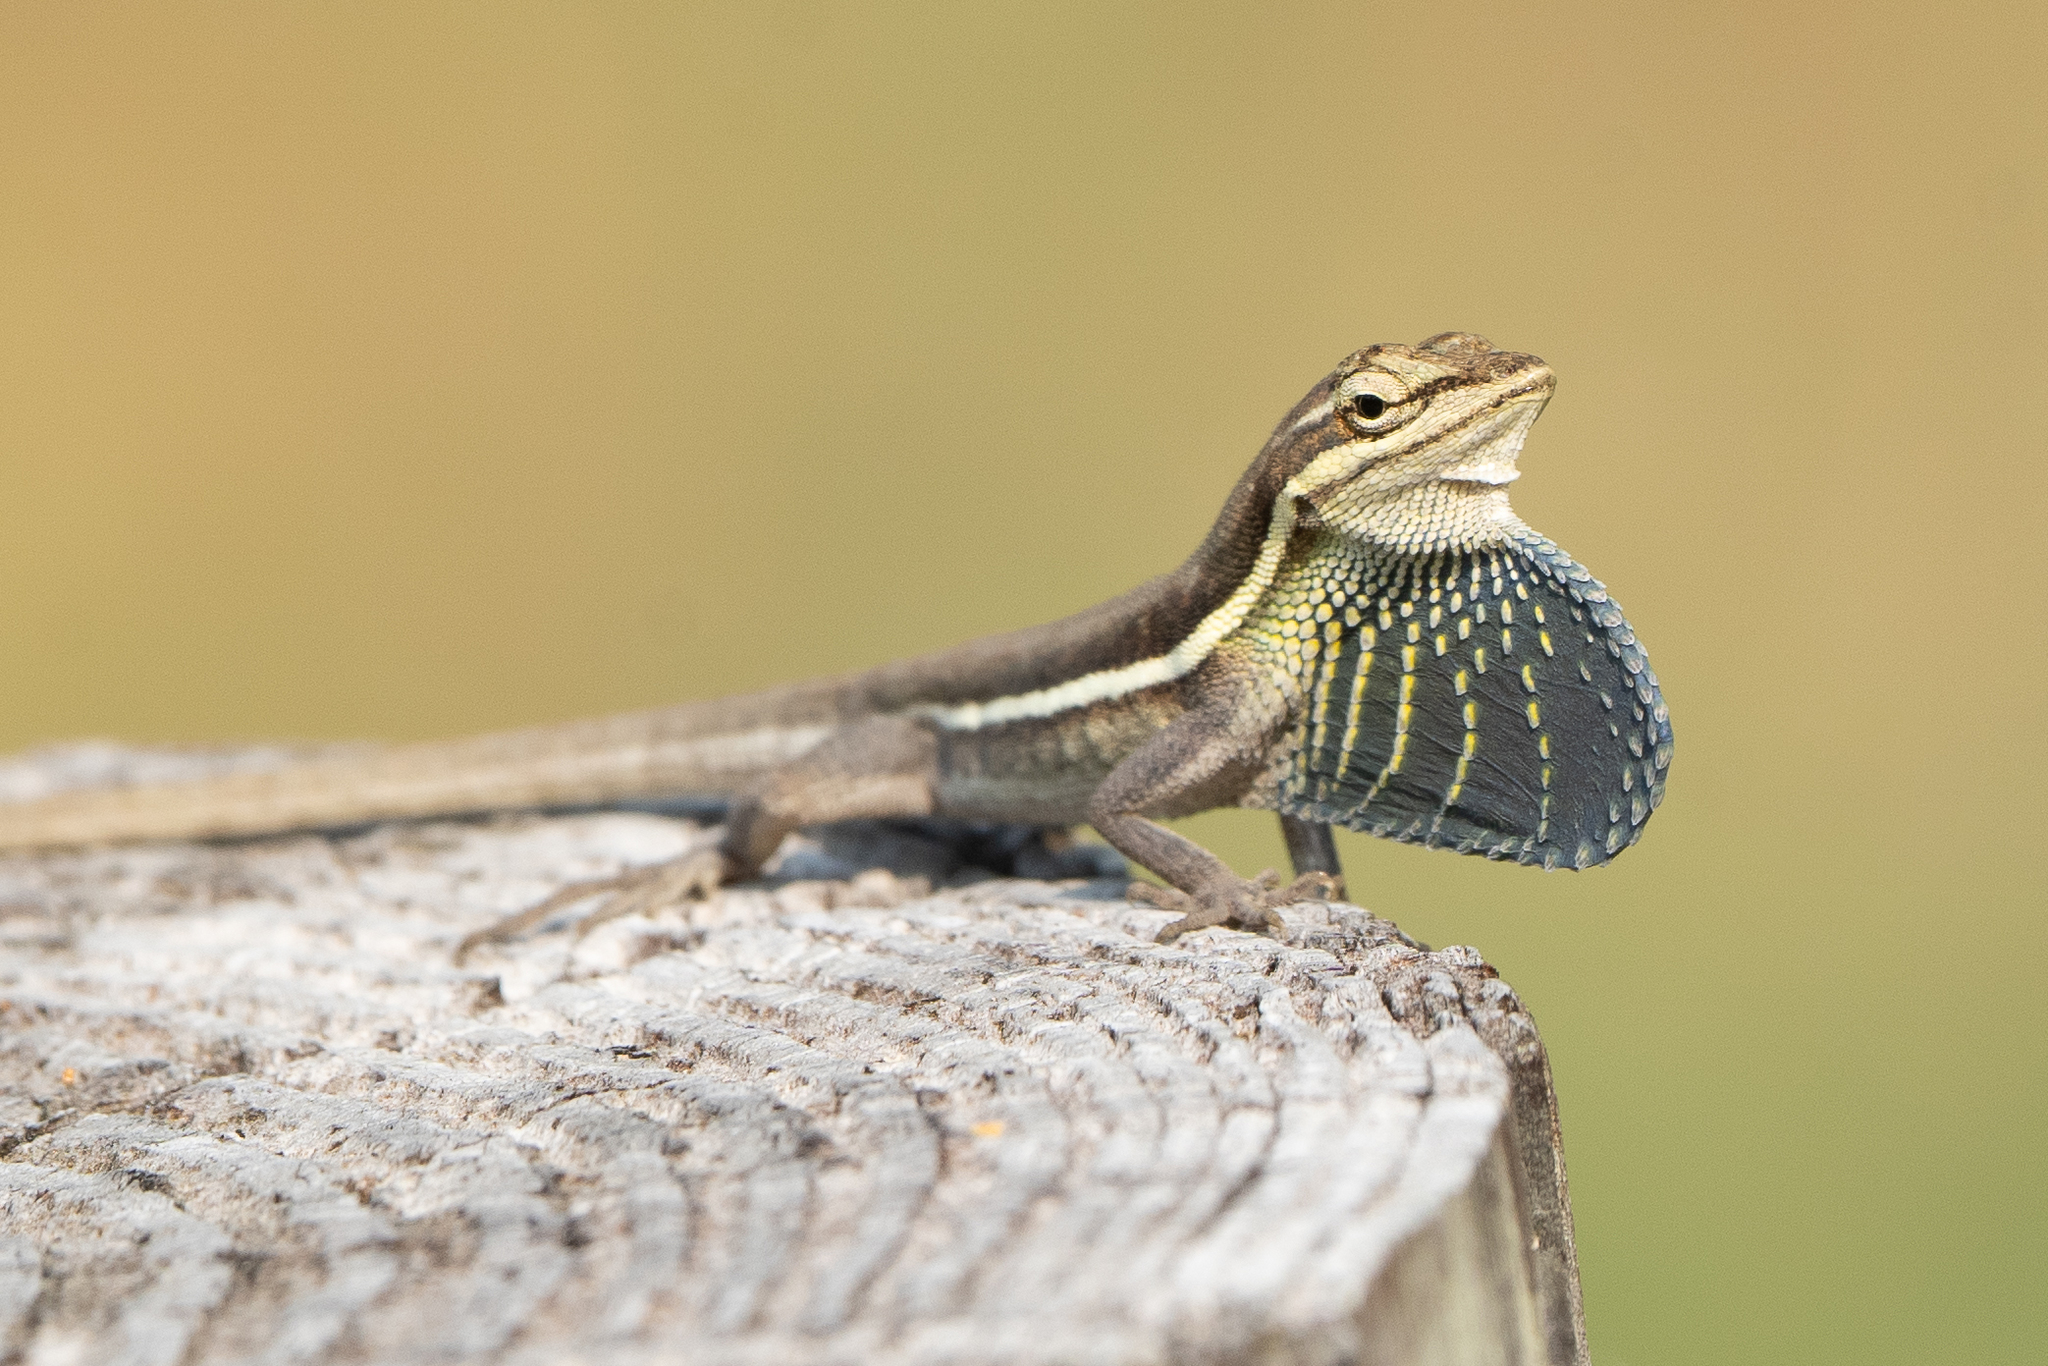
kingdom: Animalia
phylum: Chordata
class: Squamata
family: Dactyloidae
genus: Anolis
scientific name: Anolis auratus
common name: Grass anole
